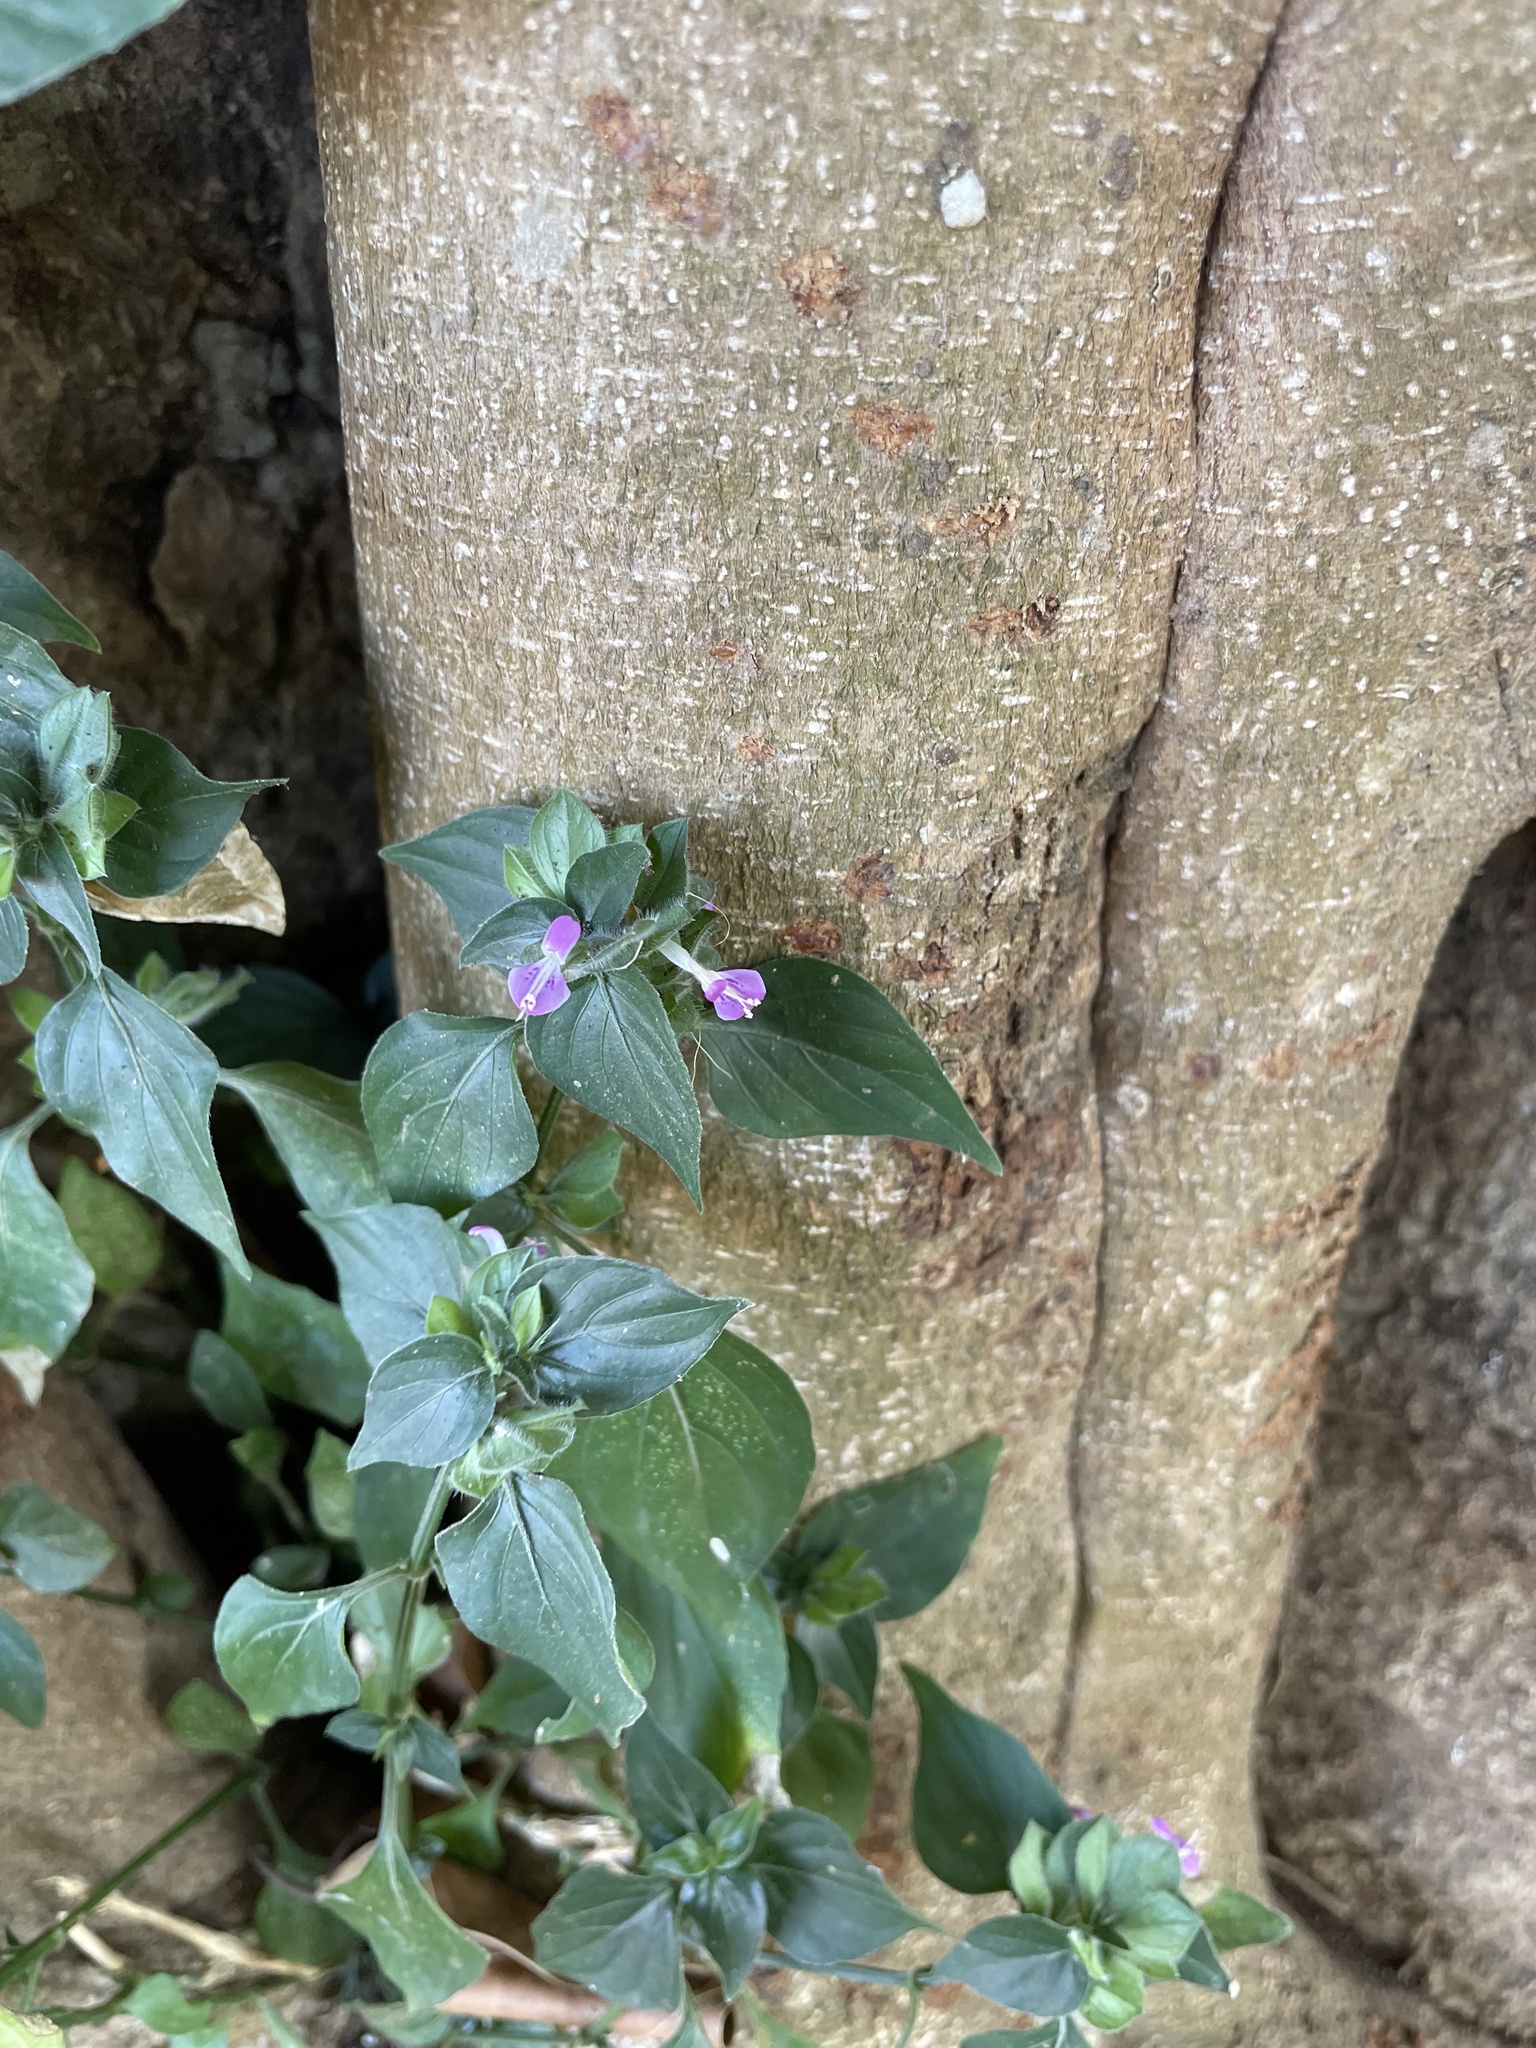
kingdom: Plantae
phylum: Tracheophyta
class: Magnoliopsida
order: Lamiales
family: Acanthaceae
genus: Dicliptera
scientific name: Dicliptera chinensis
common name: Chinese foldwing
